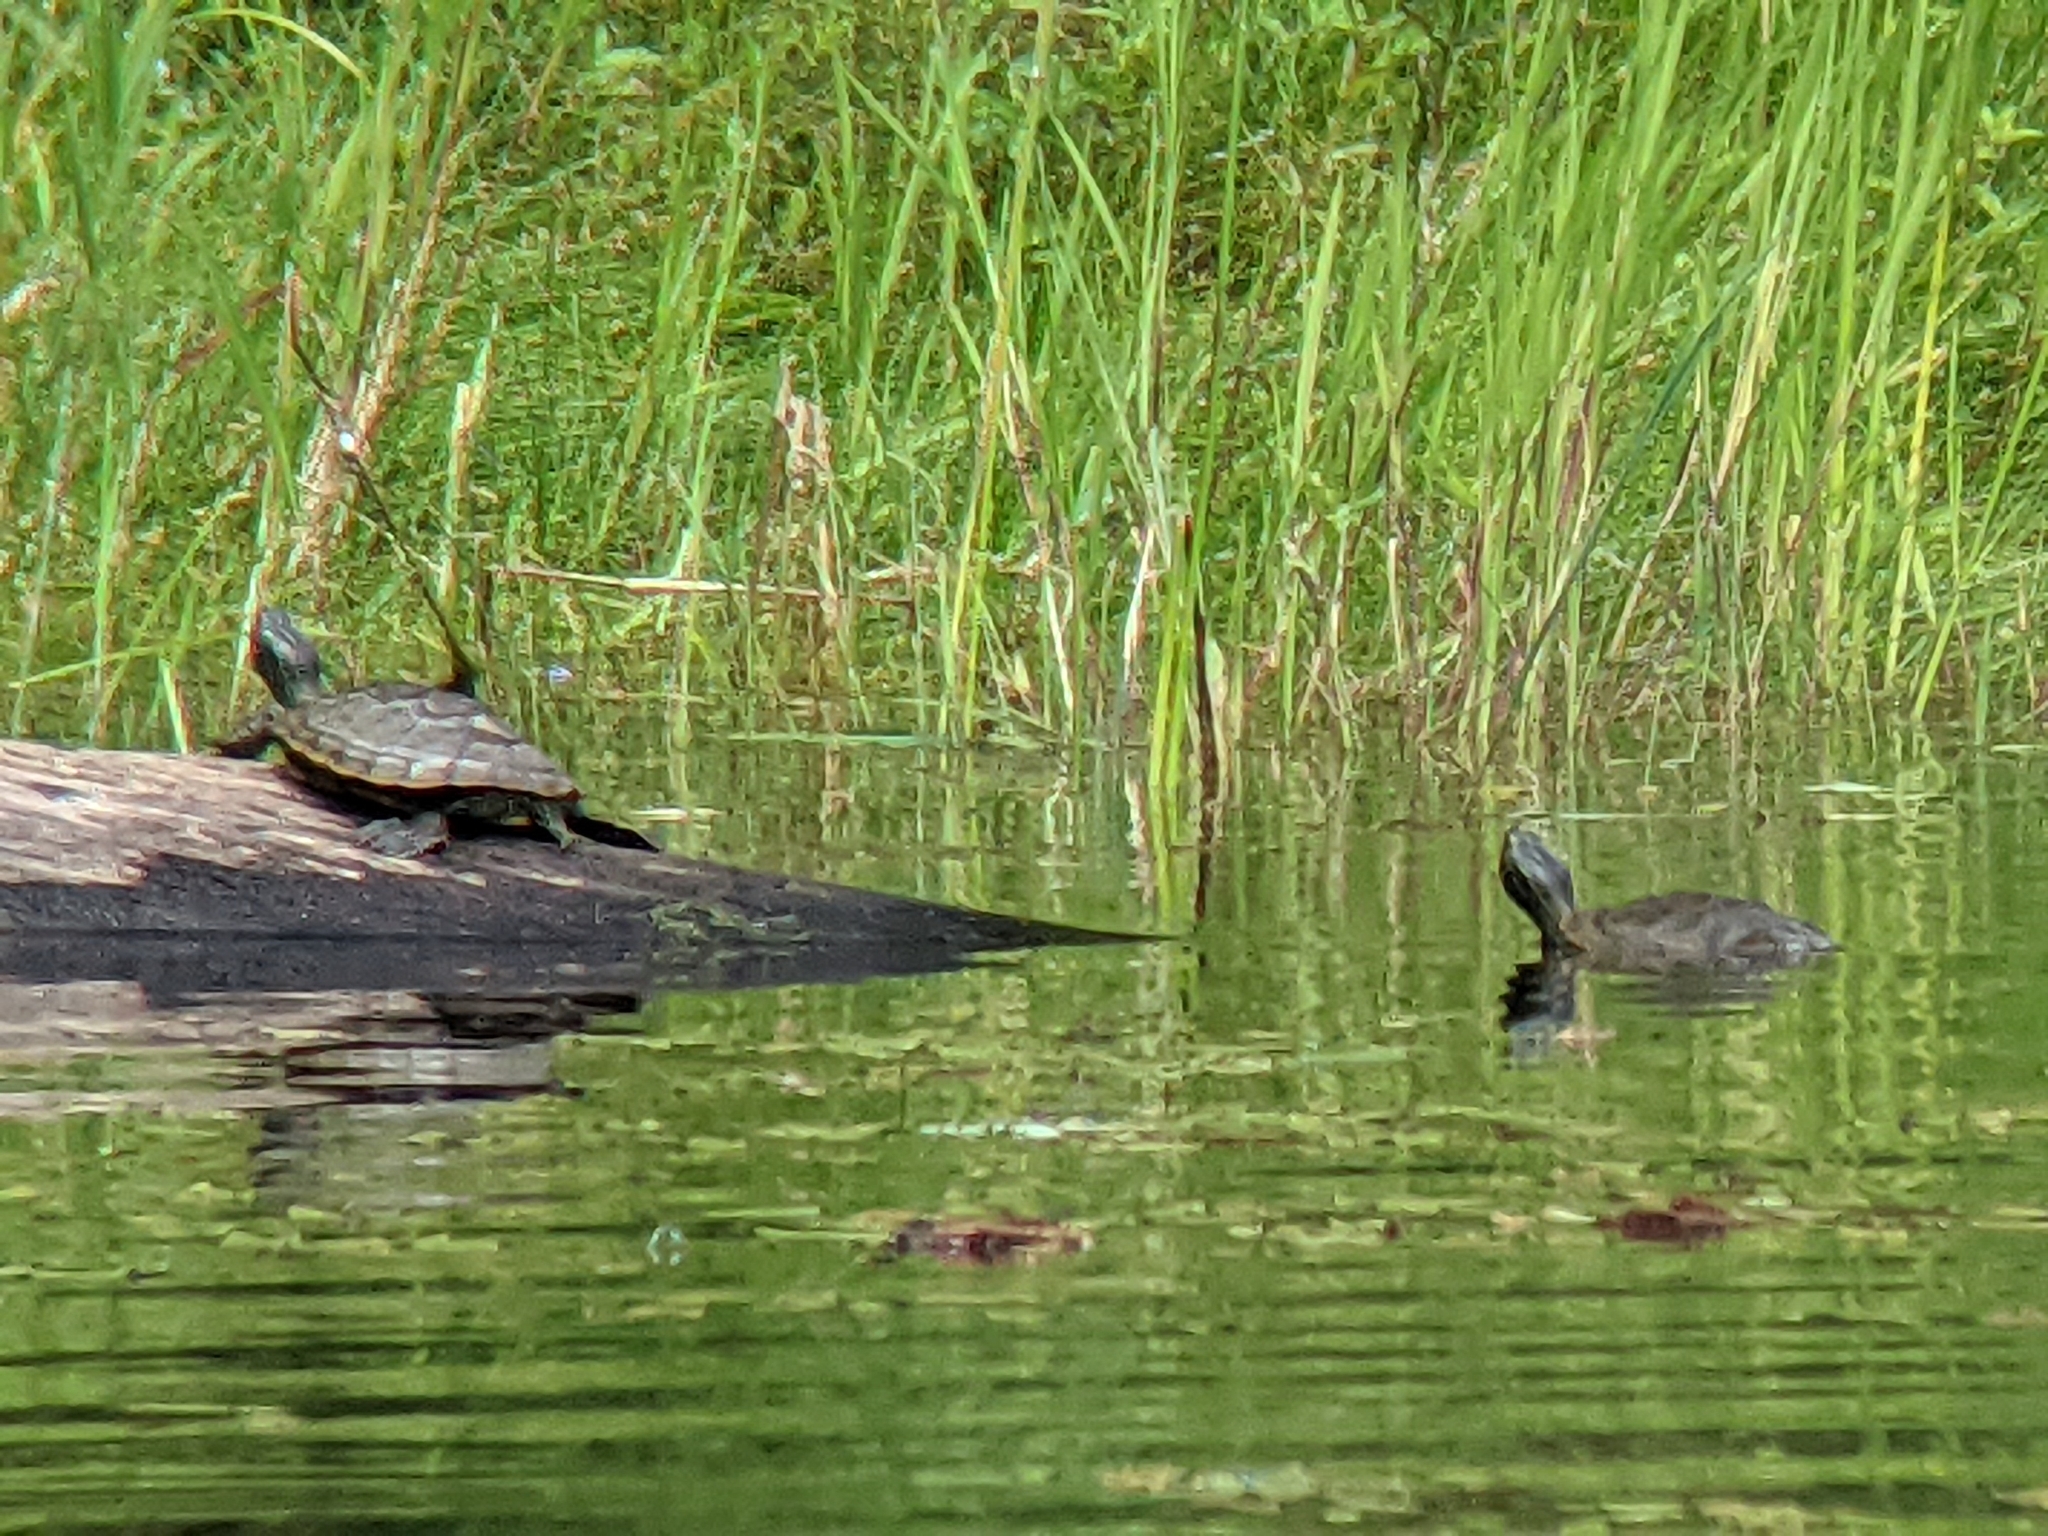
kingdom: Animalia
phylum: Chordata
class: Testudines
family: Emydidae
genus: Graptemys
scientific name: Graptemys geographica
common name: Common map turtle
